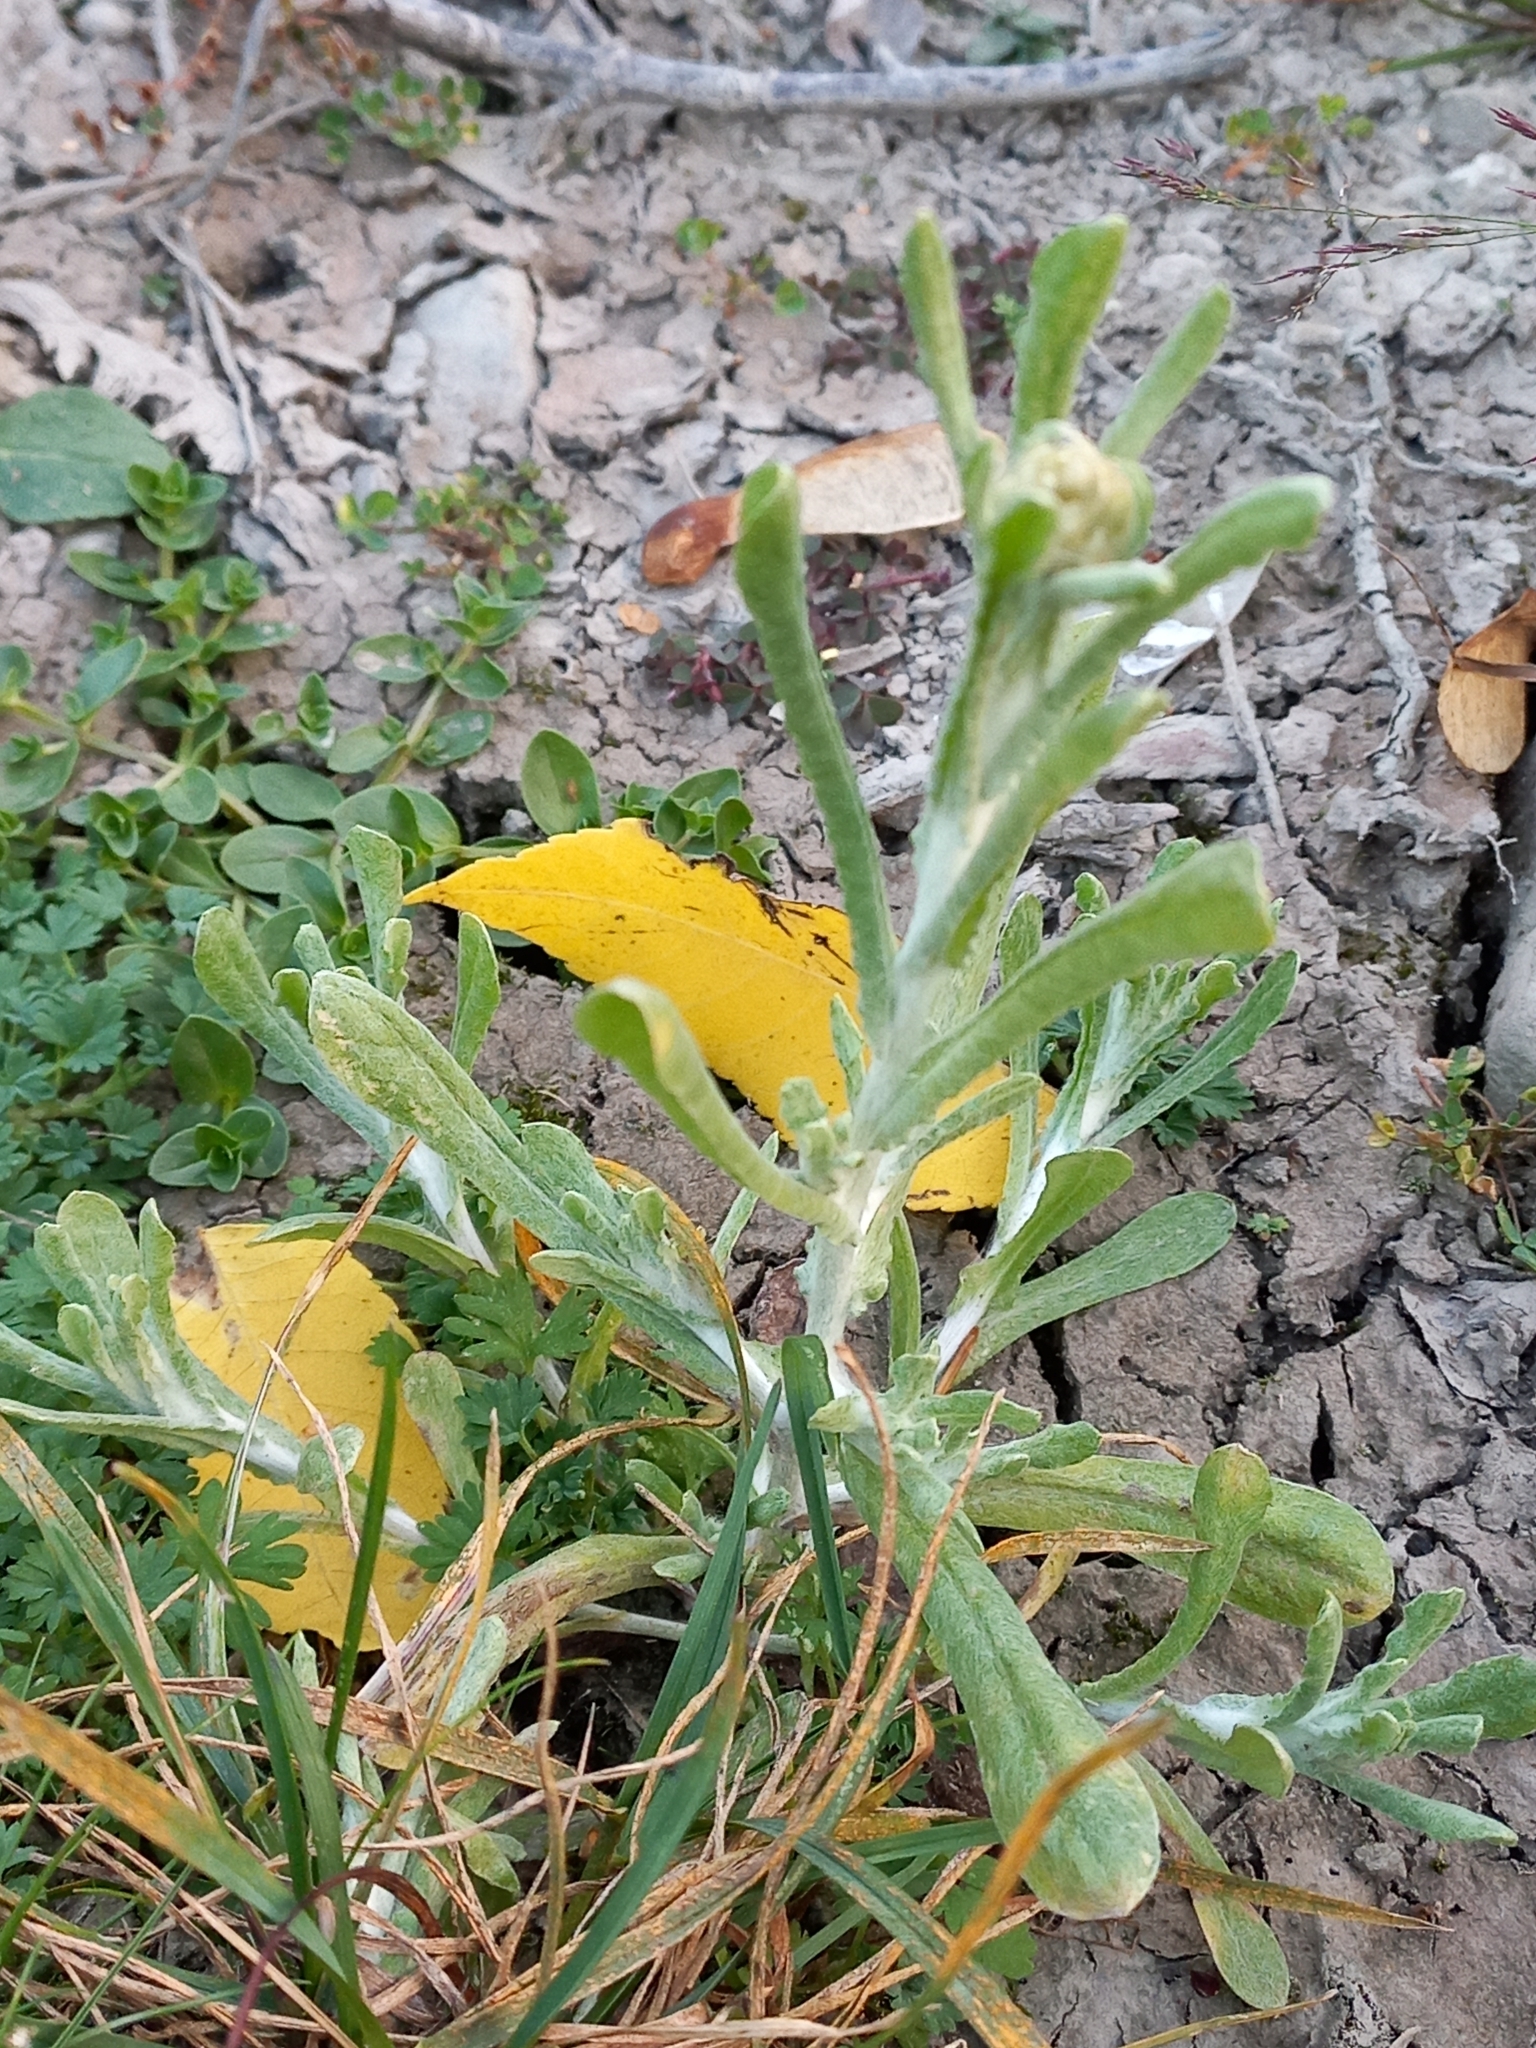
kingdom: Plantae
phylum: Tracheophyta
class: Magnoliopsida
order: Asterales
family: Asteraceae
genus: Helichrysum
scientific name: Helichrysum luteoalbum
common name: Daisy
